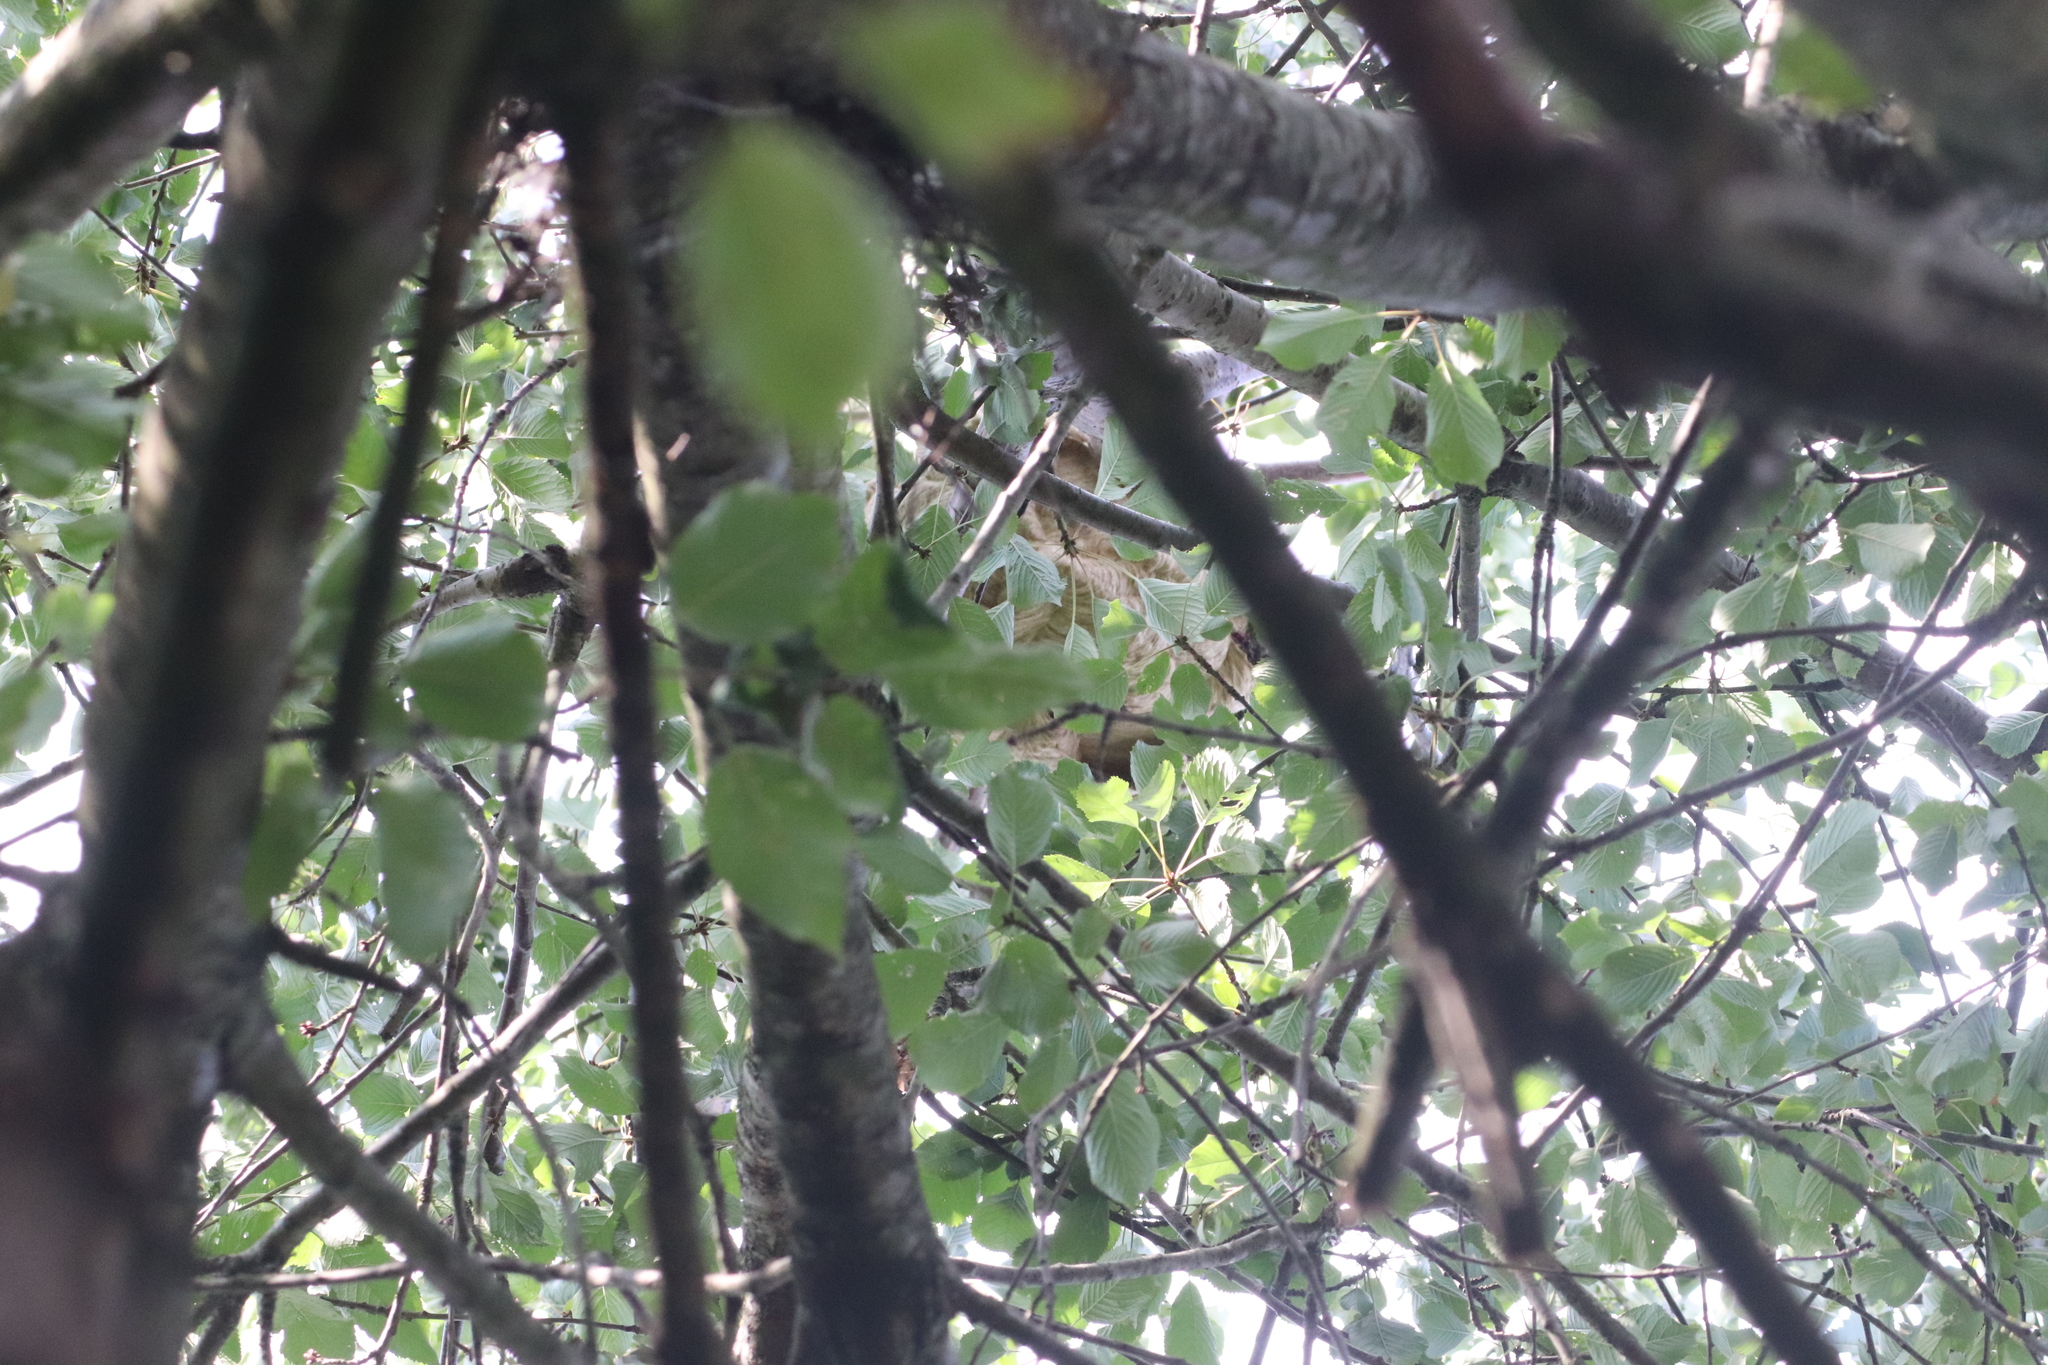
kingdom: Animalia
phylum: Arthropoda
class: Insecta
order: Hymenoptera
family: Vespidae
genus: Vespa
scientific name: Vespa velutina
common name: Asian hornet
